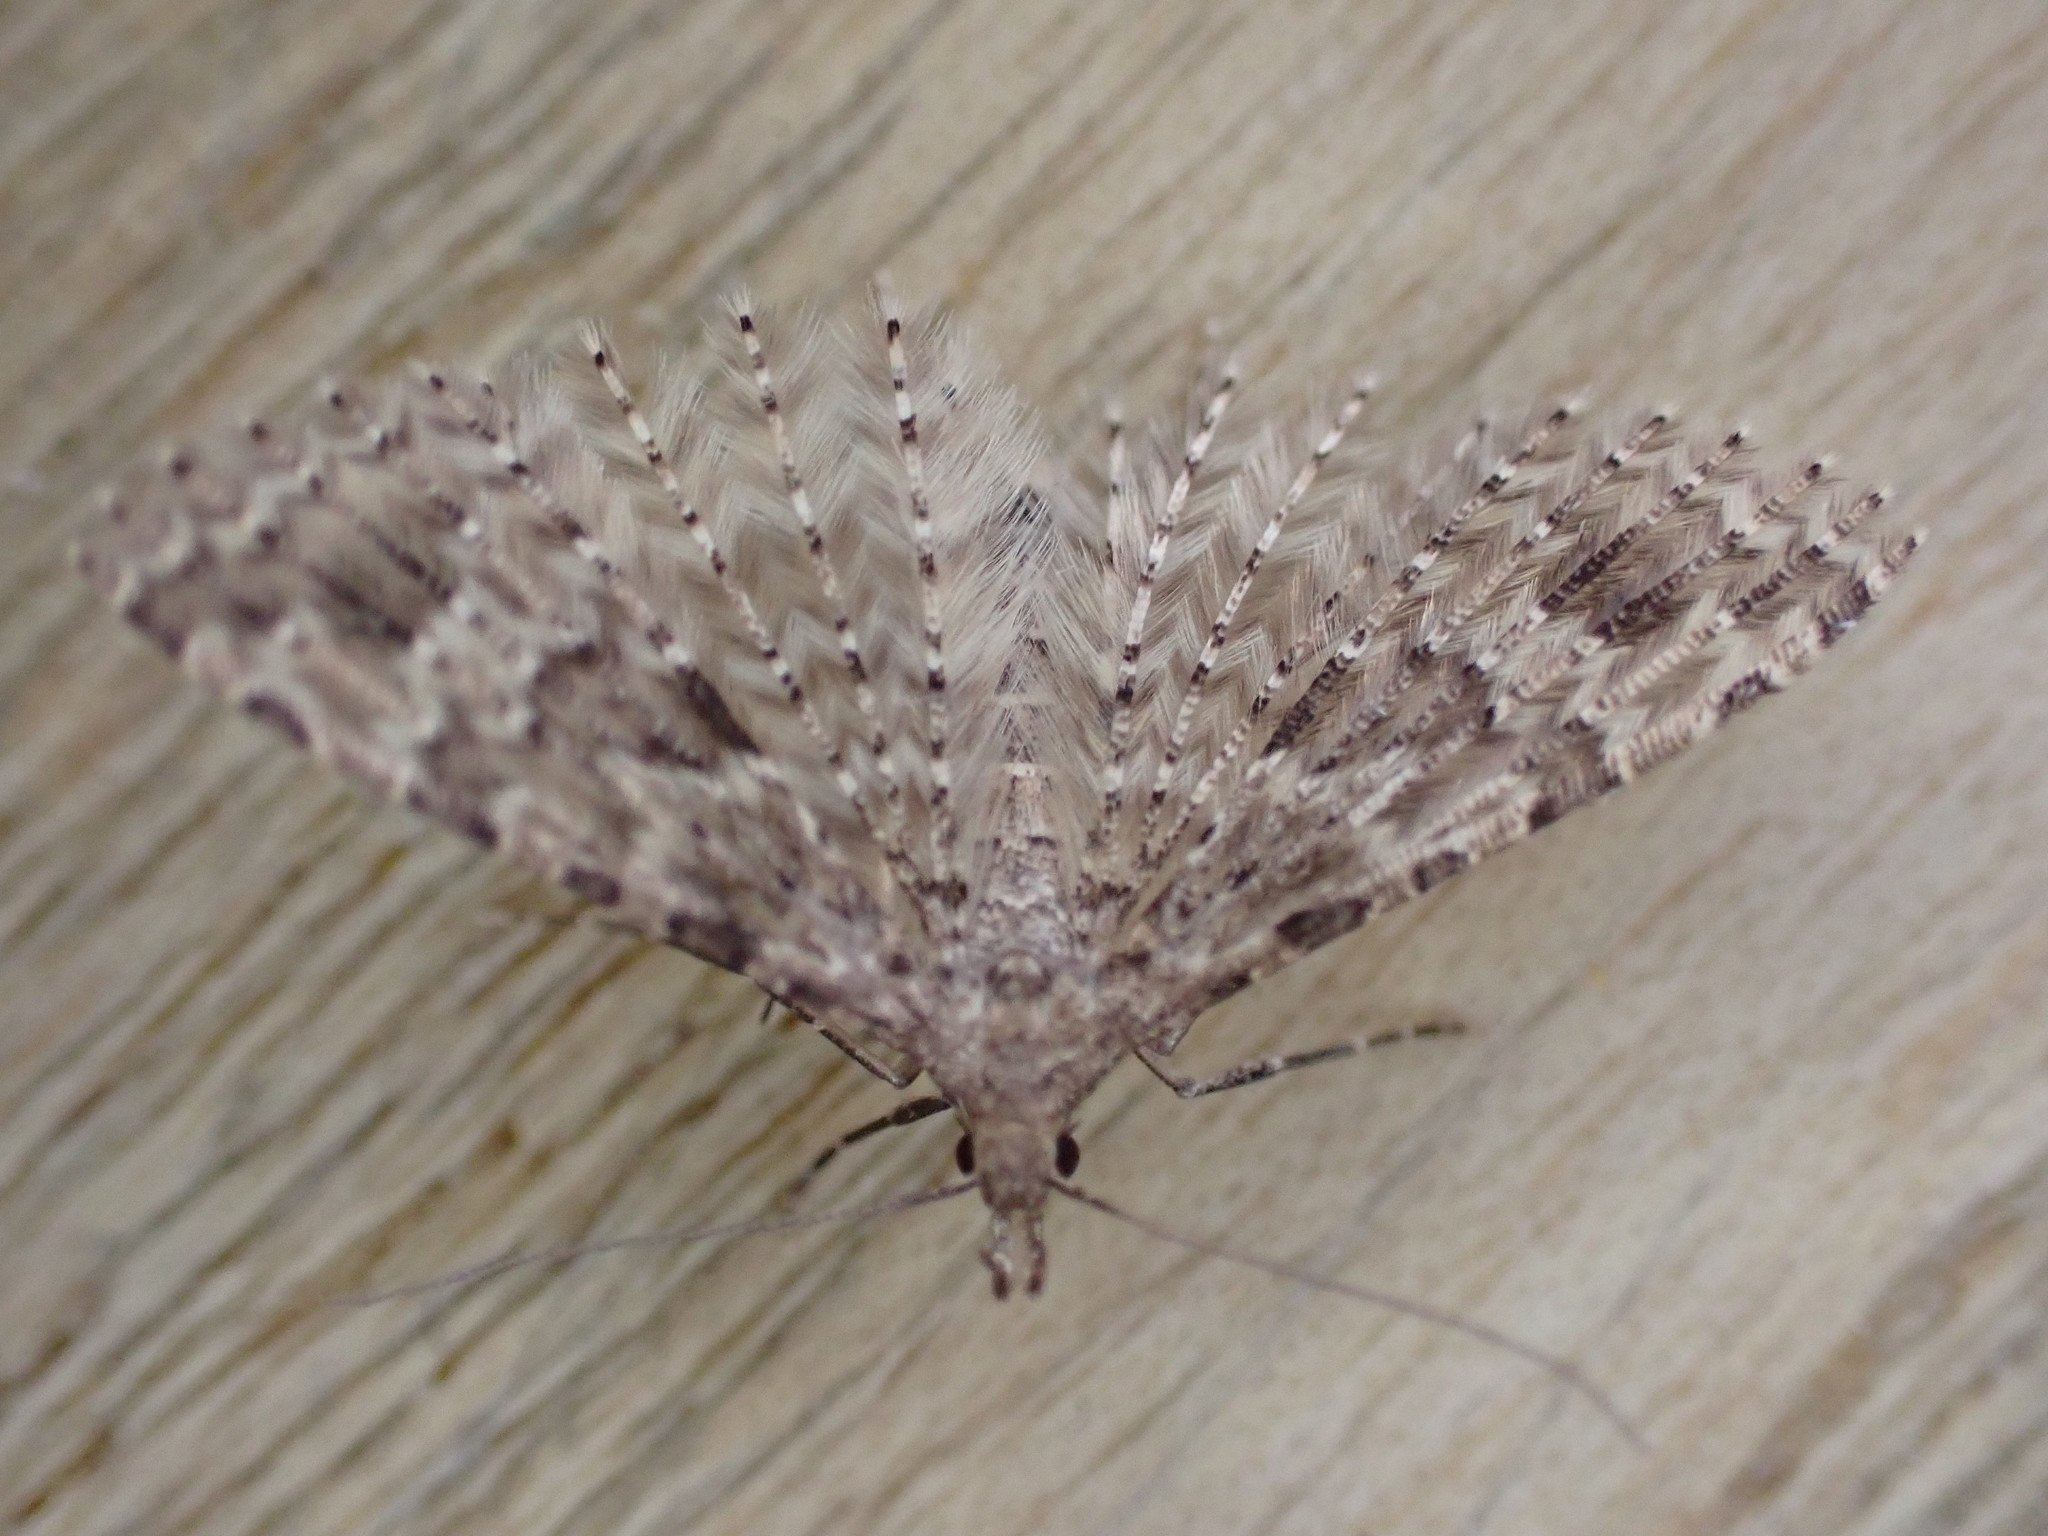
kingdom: Animalia
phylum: Arthropoda
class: Insecta
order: Lepidoptera
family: Alucitidae
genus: Alucita
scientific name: Alucita hexadactyla
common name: Twenty-plume moth
